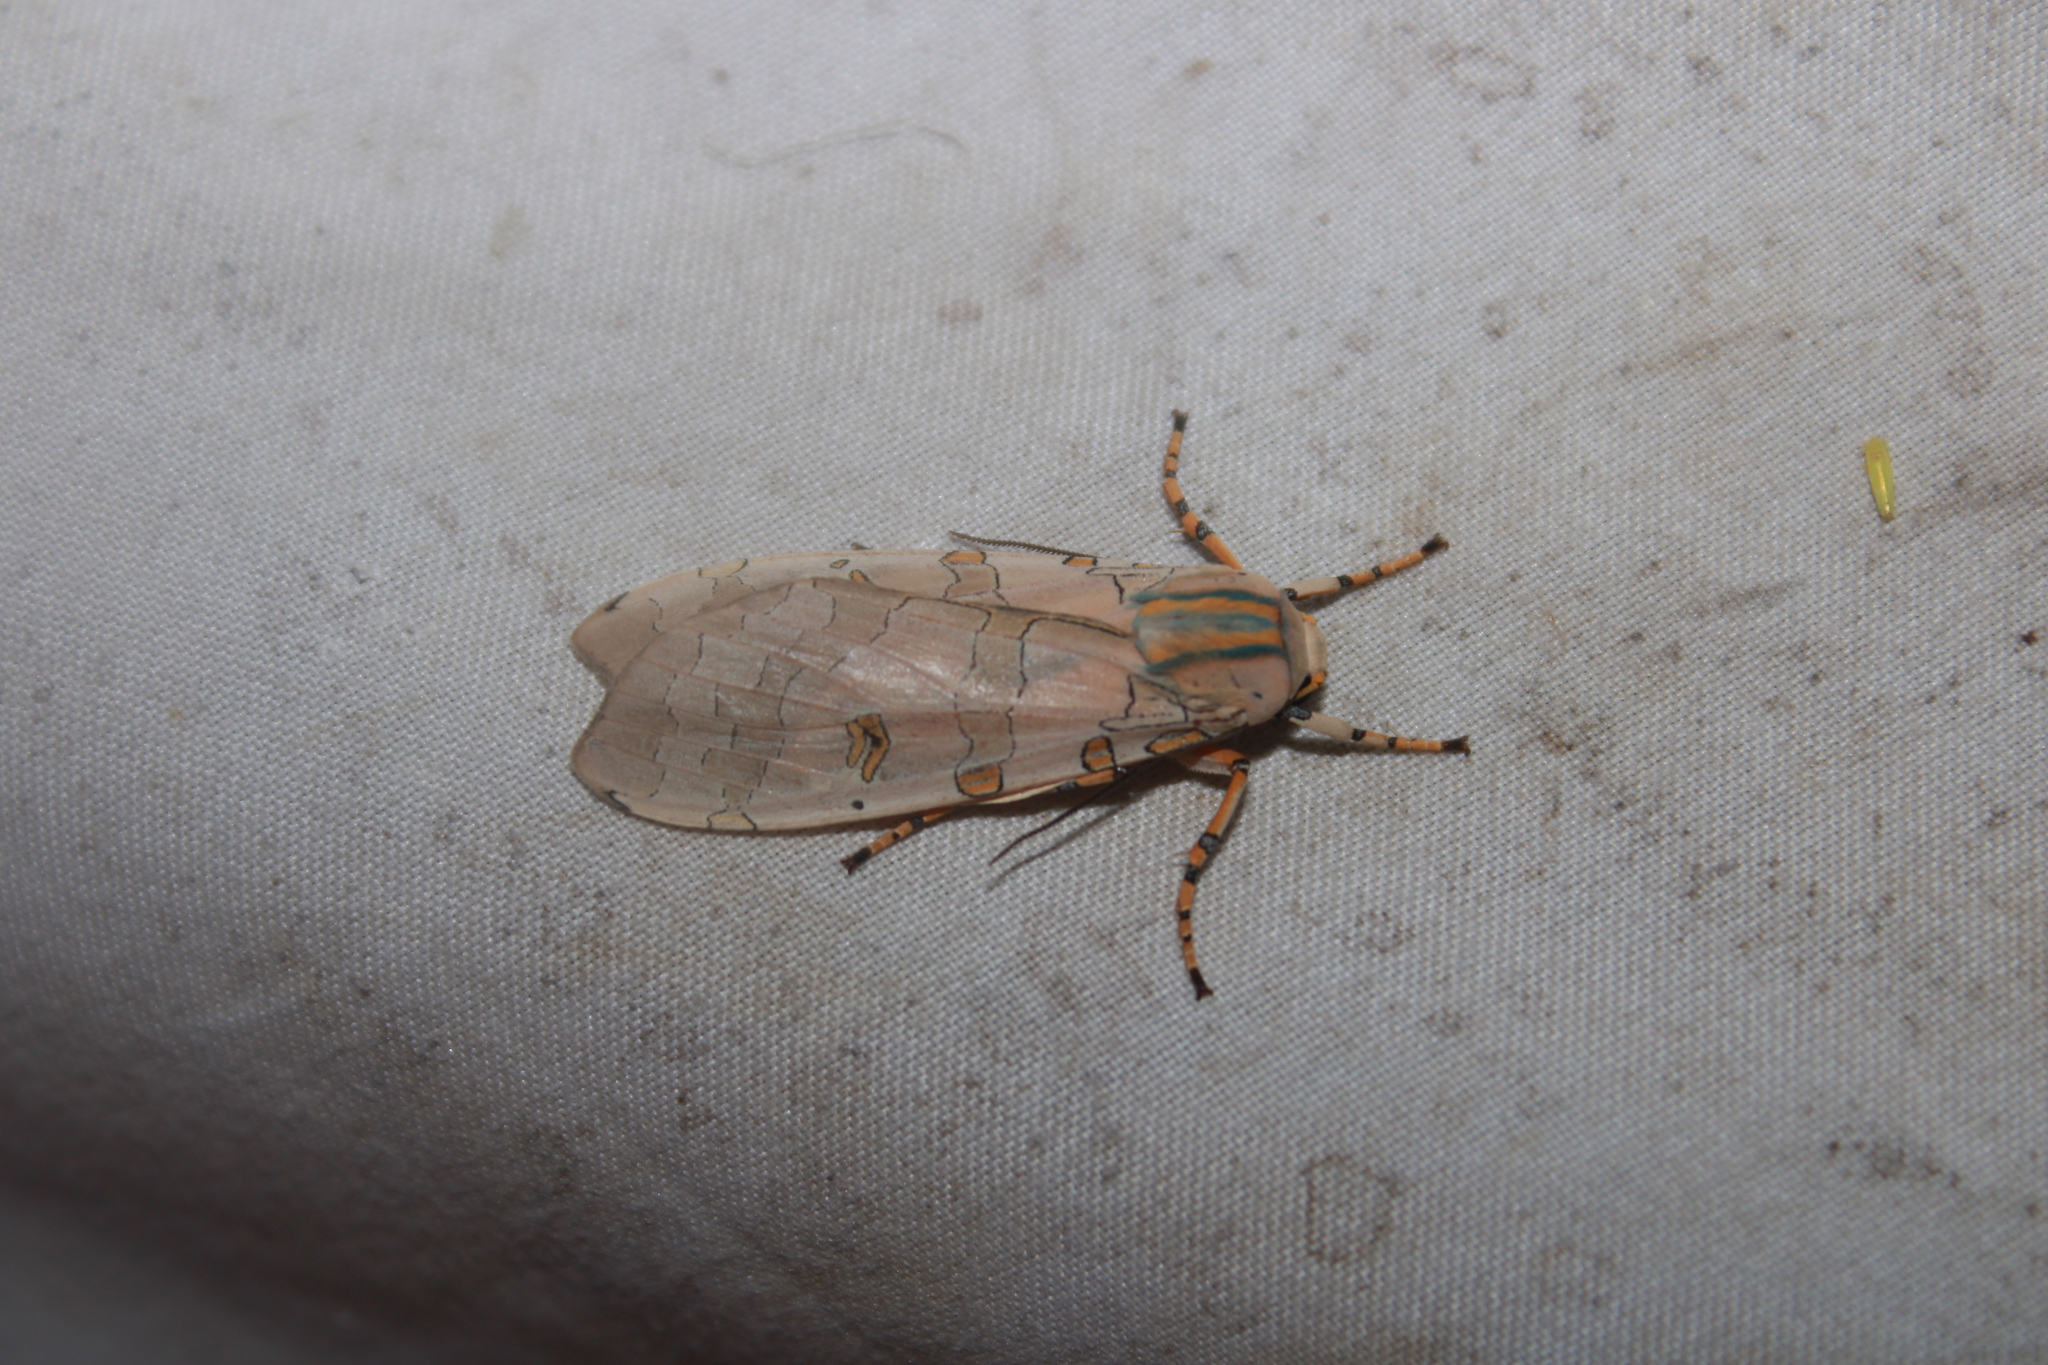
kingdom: Animalia
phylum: Arthropoda
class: Insecta
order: Lepidoptera
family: Erebidae
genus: Halysidota
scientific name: Halysidota cinctipes
